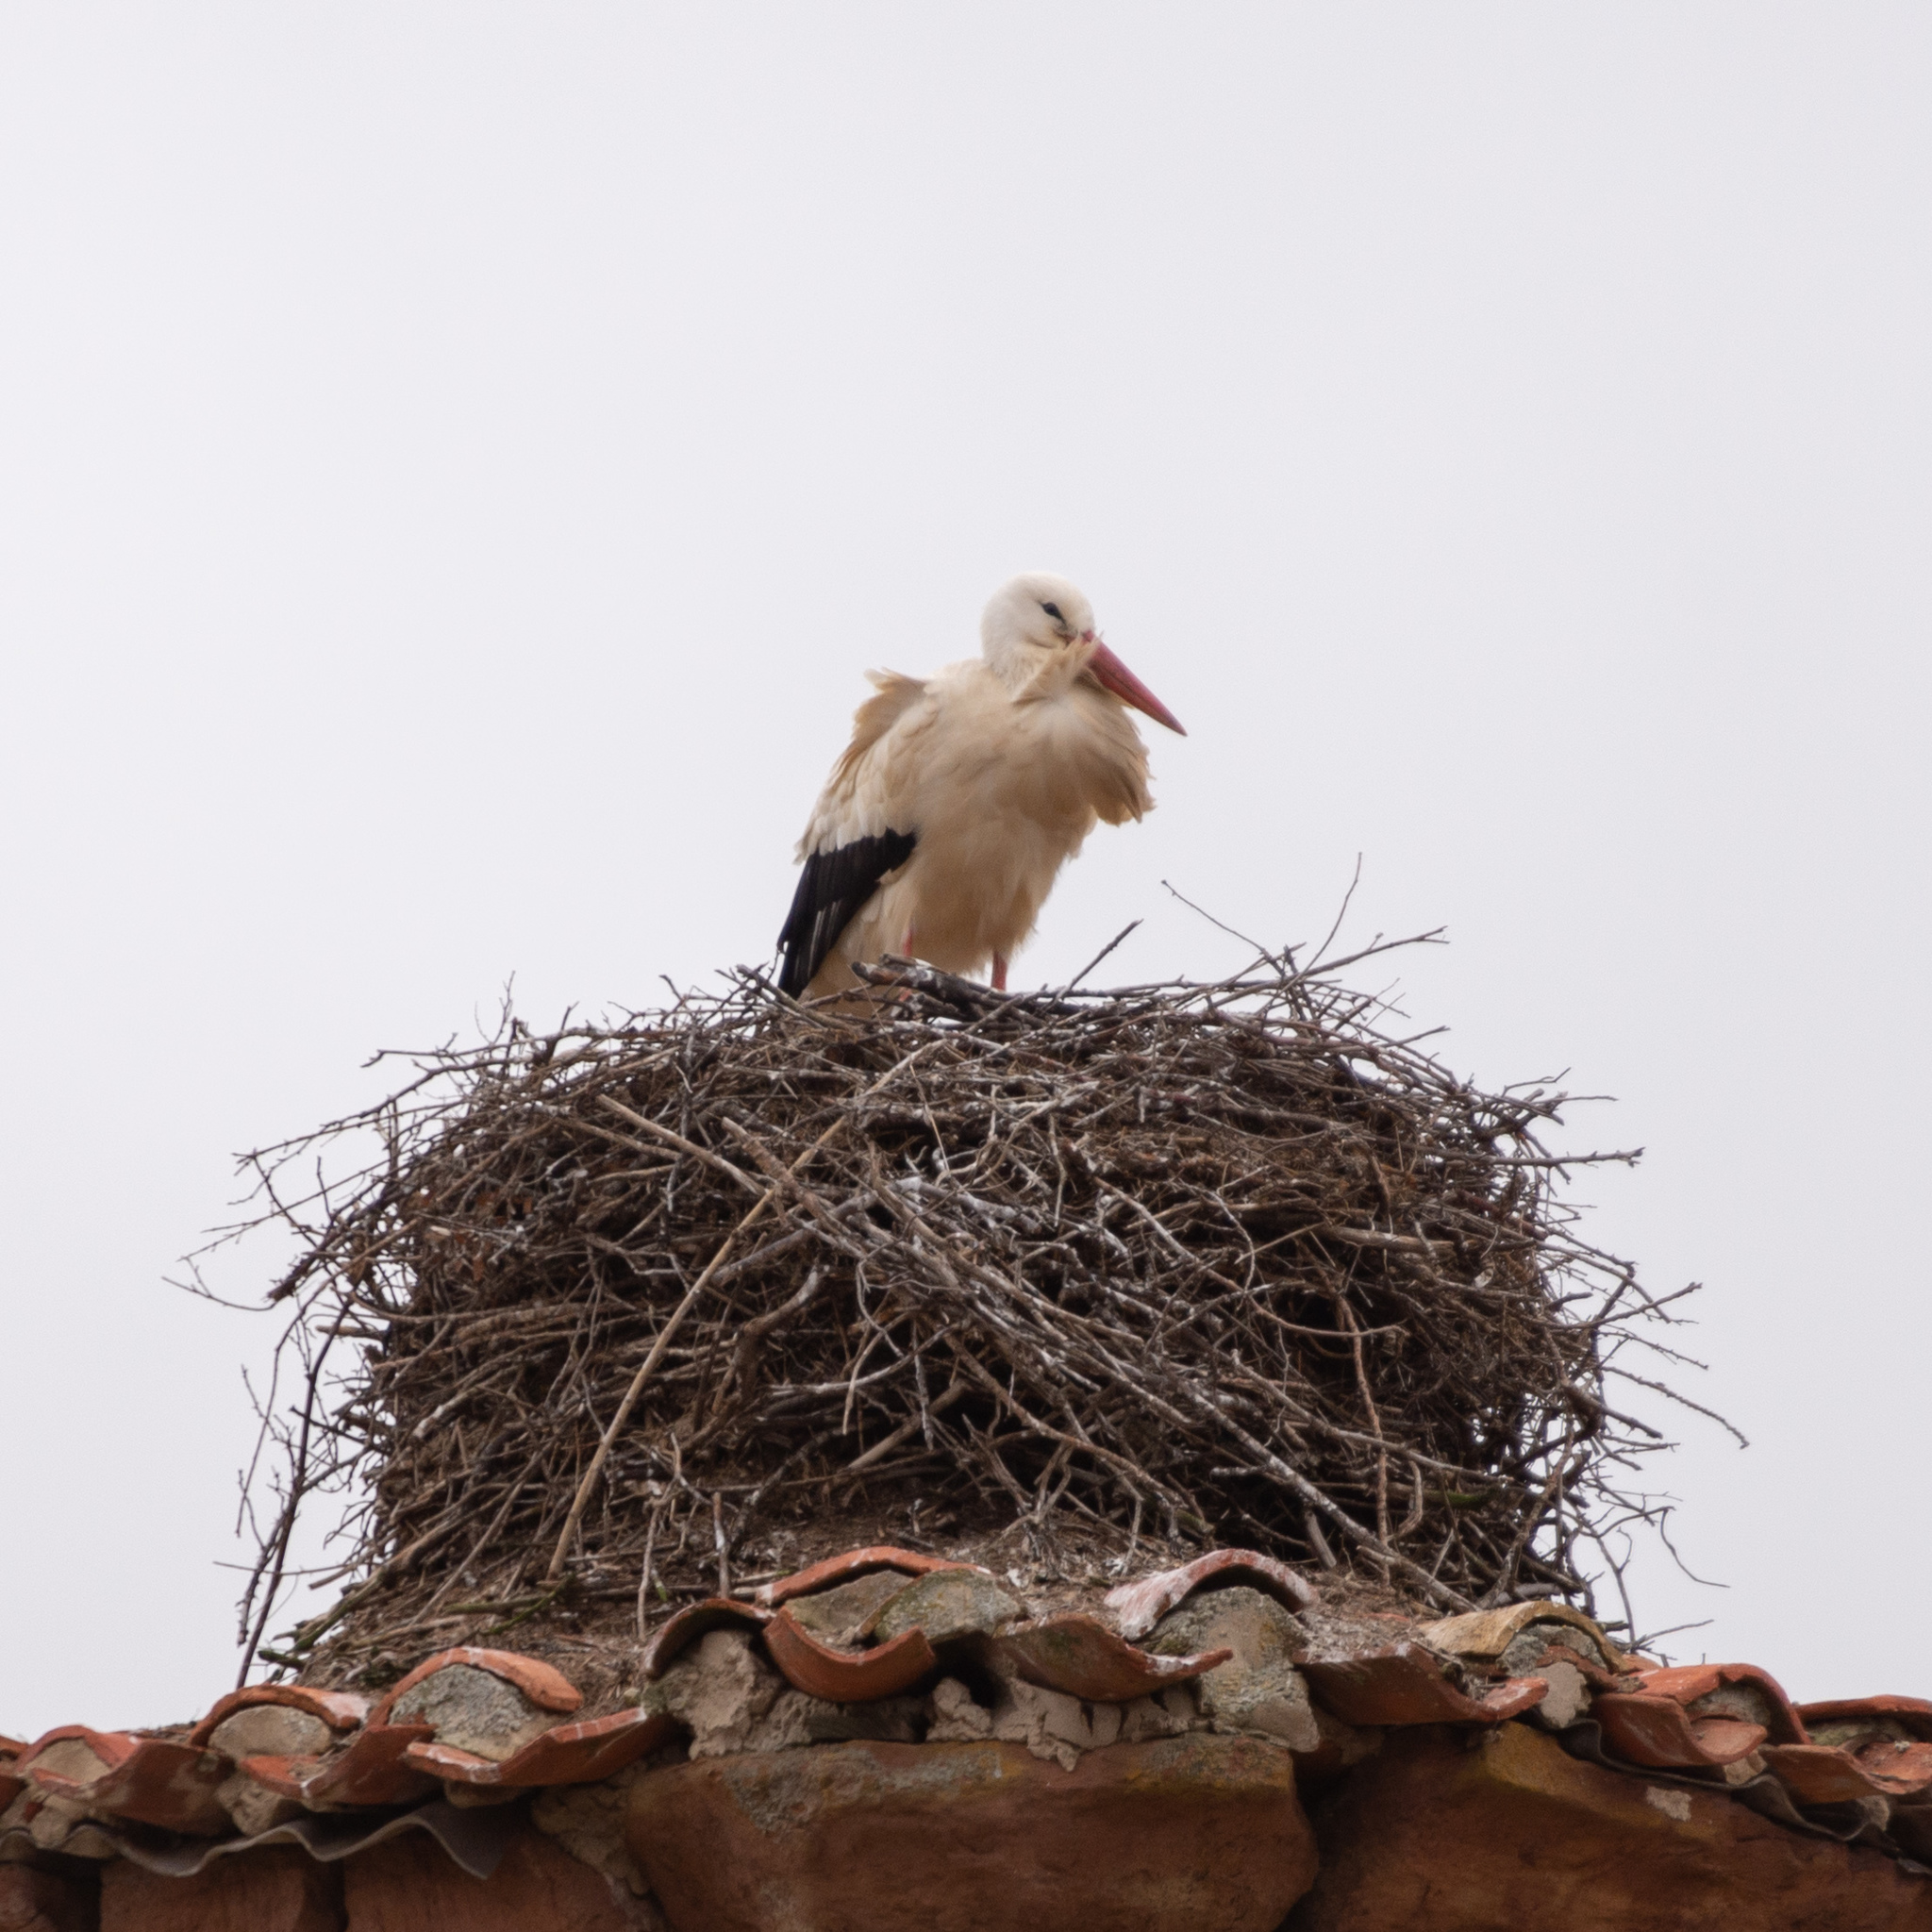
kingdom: Animalia
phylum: Chordata
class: Aves
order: Ciconiiformes
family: Ciconiidae
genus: Ciconia
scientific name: Ciconia ciconia
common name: White stork
